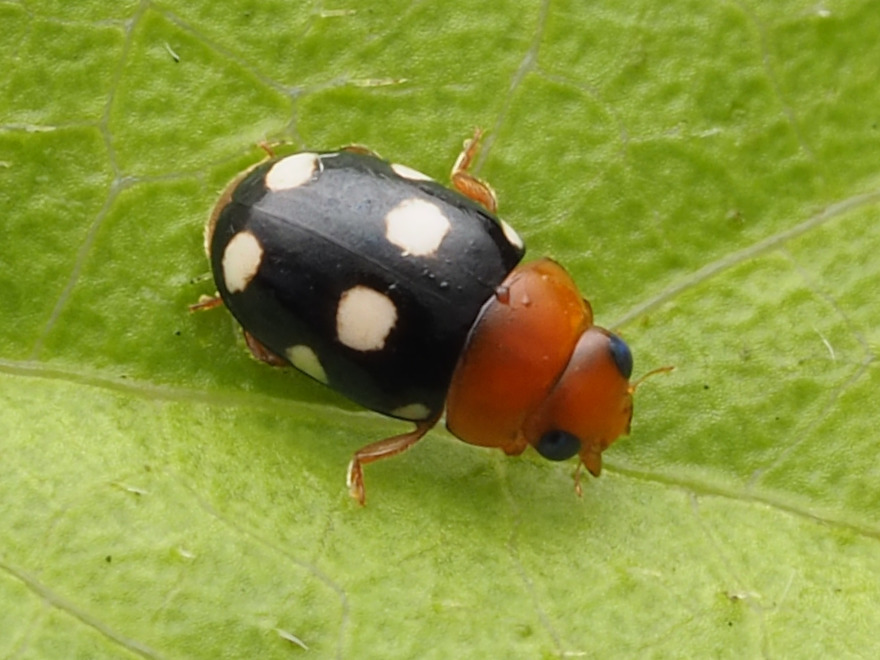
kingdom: Animalia
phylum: Arthropoda
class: Insecta
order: Coleoptera
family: Coccinellidae
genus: Hyperaspidius
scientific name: Hyperaspidius venustulus
